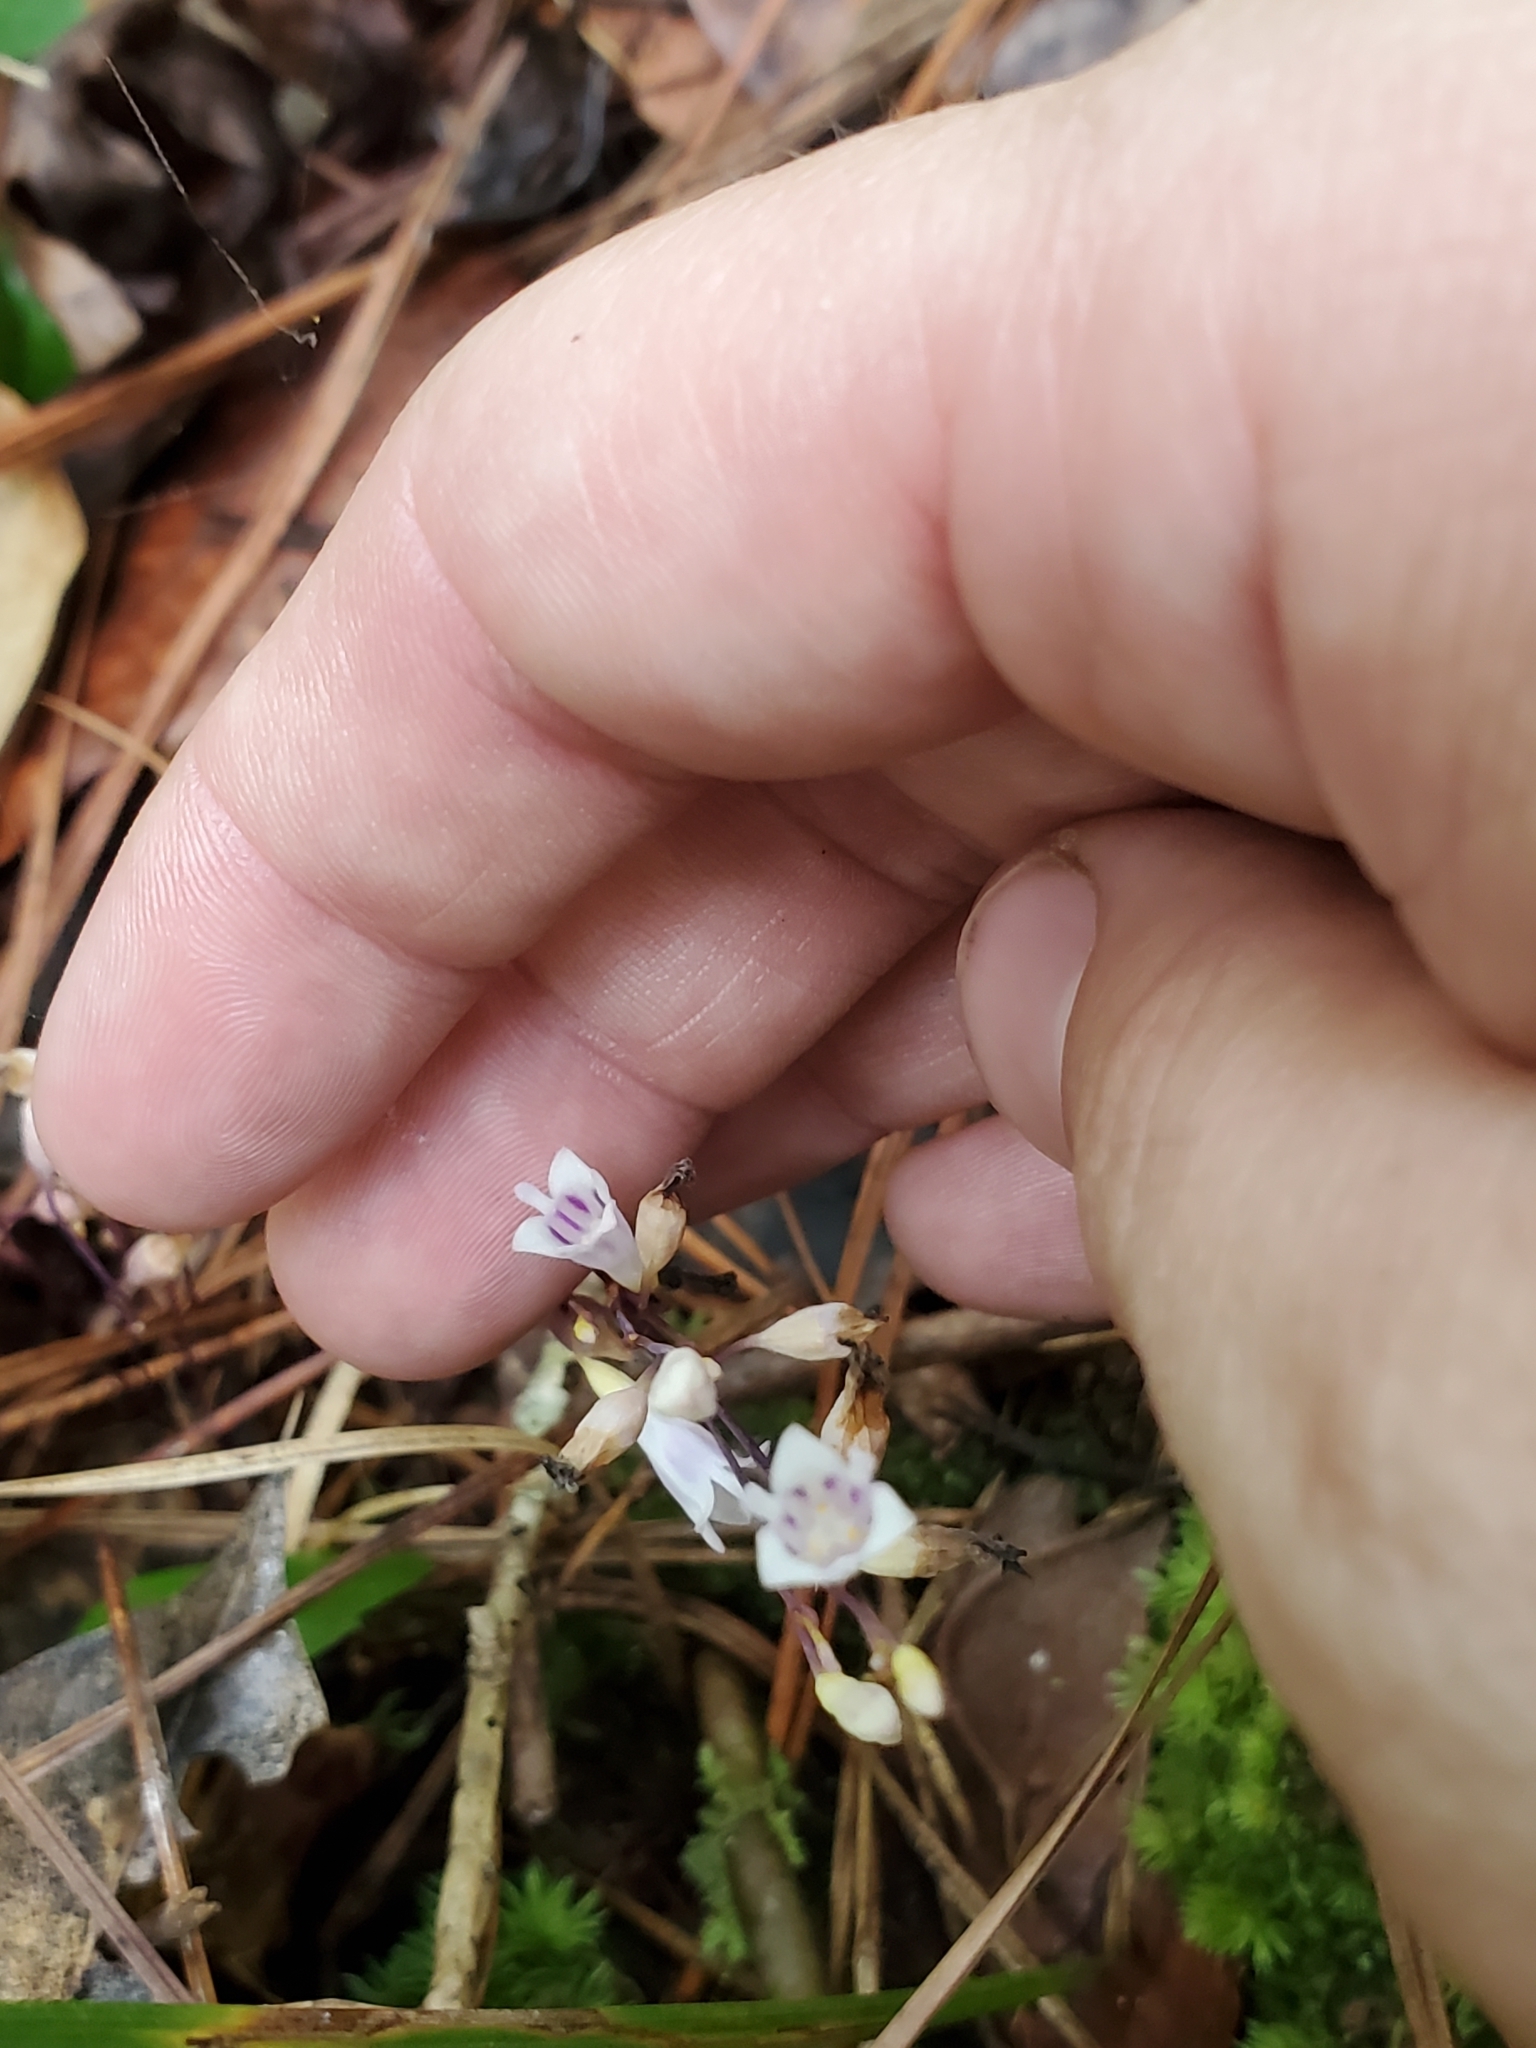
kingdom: Plantae
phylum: Tracheophyta
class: Liliopsida
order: Dioscoreales
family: Burmanniaceae
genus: Apteria
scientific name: Apteria aphylla
